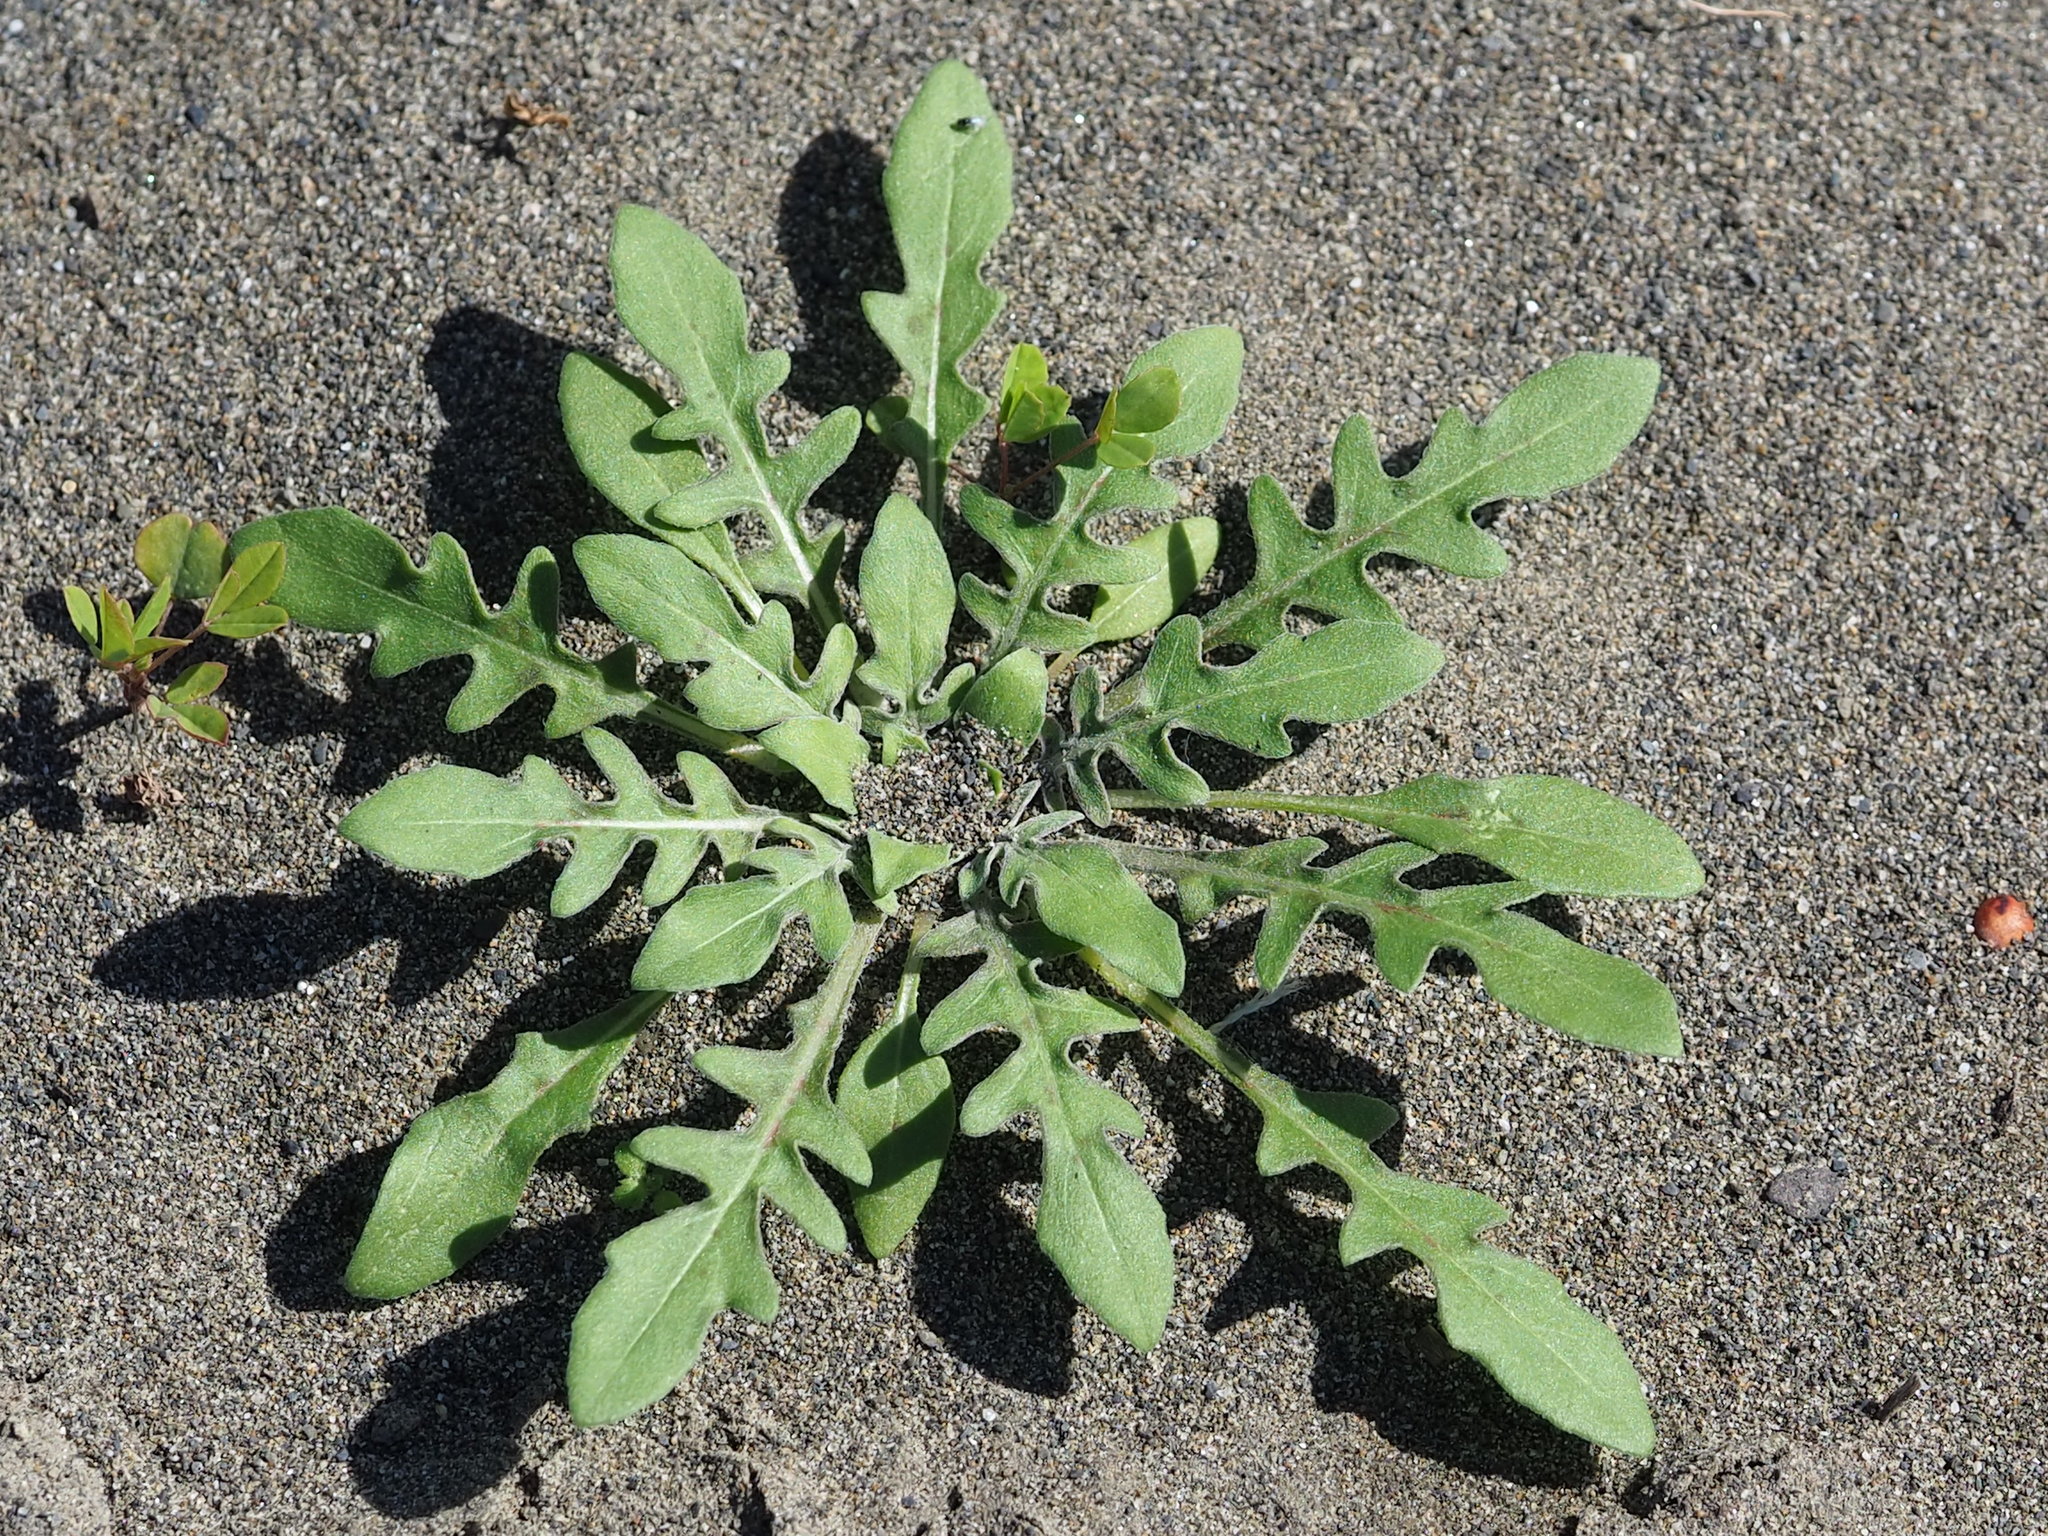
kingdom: Plantae
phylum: Tracheophyta
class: Magnoliopsida
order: Myrtales
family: Onagraceae
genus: Oenothera
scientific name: Oenothera laciniata
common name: Cut-leaved evening-primrose
